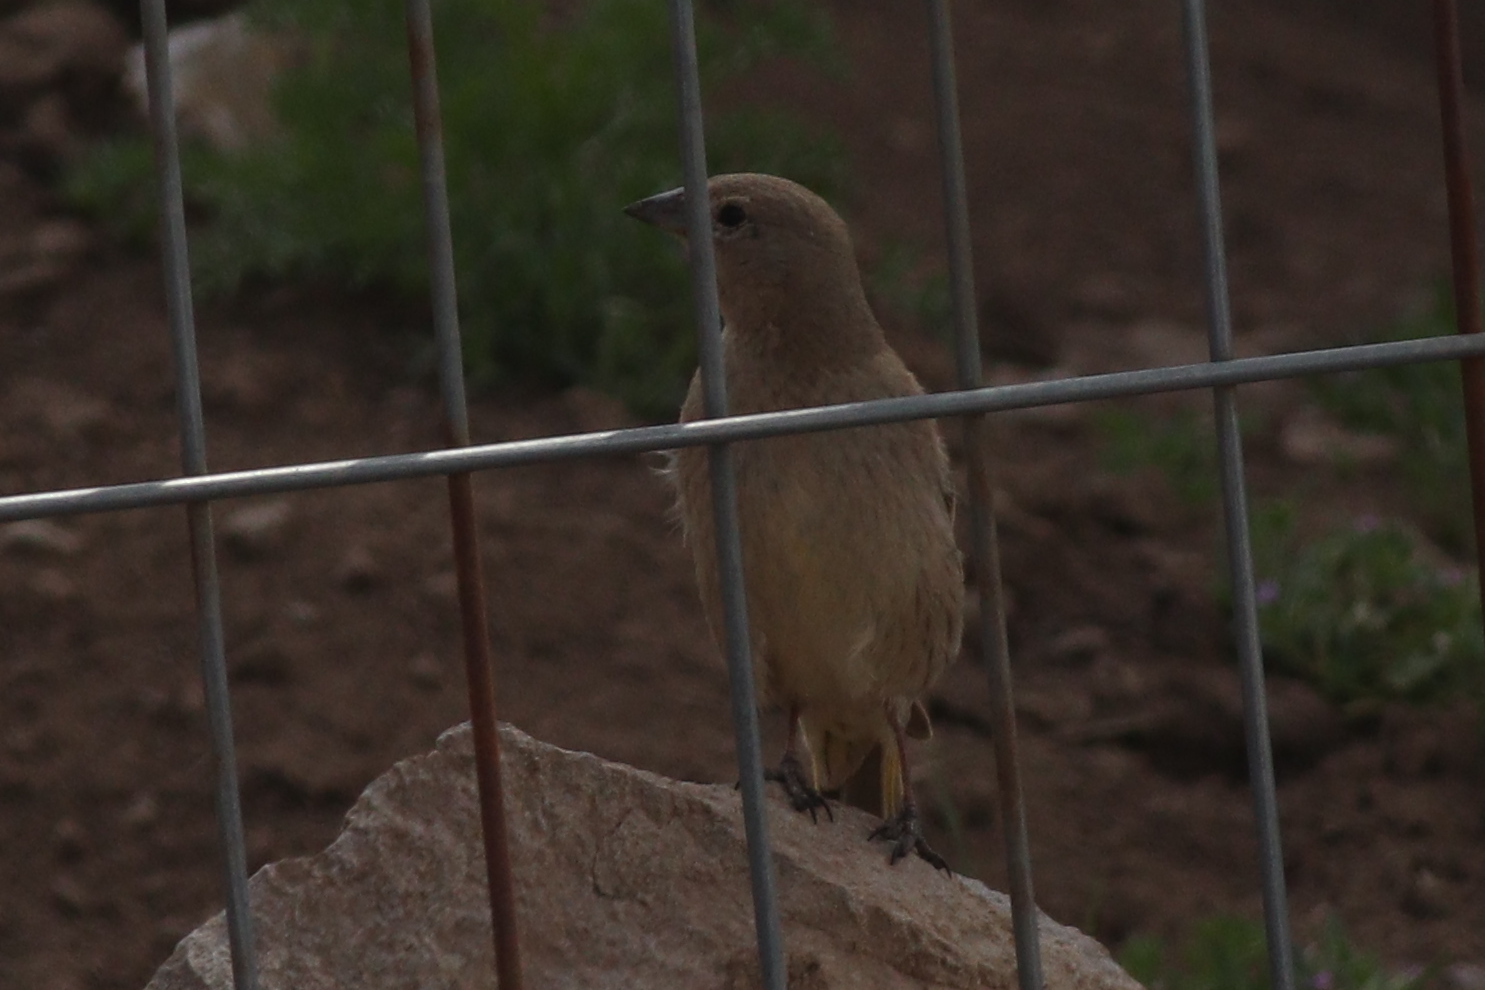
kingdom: Animalia
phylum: Chordata
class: Aves
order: Passeriformes
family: Icteridae
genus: Molothrus
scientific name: Molothrus bonariensis
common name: Shiny cowbird
